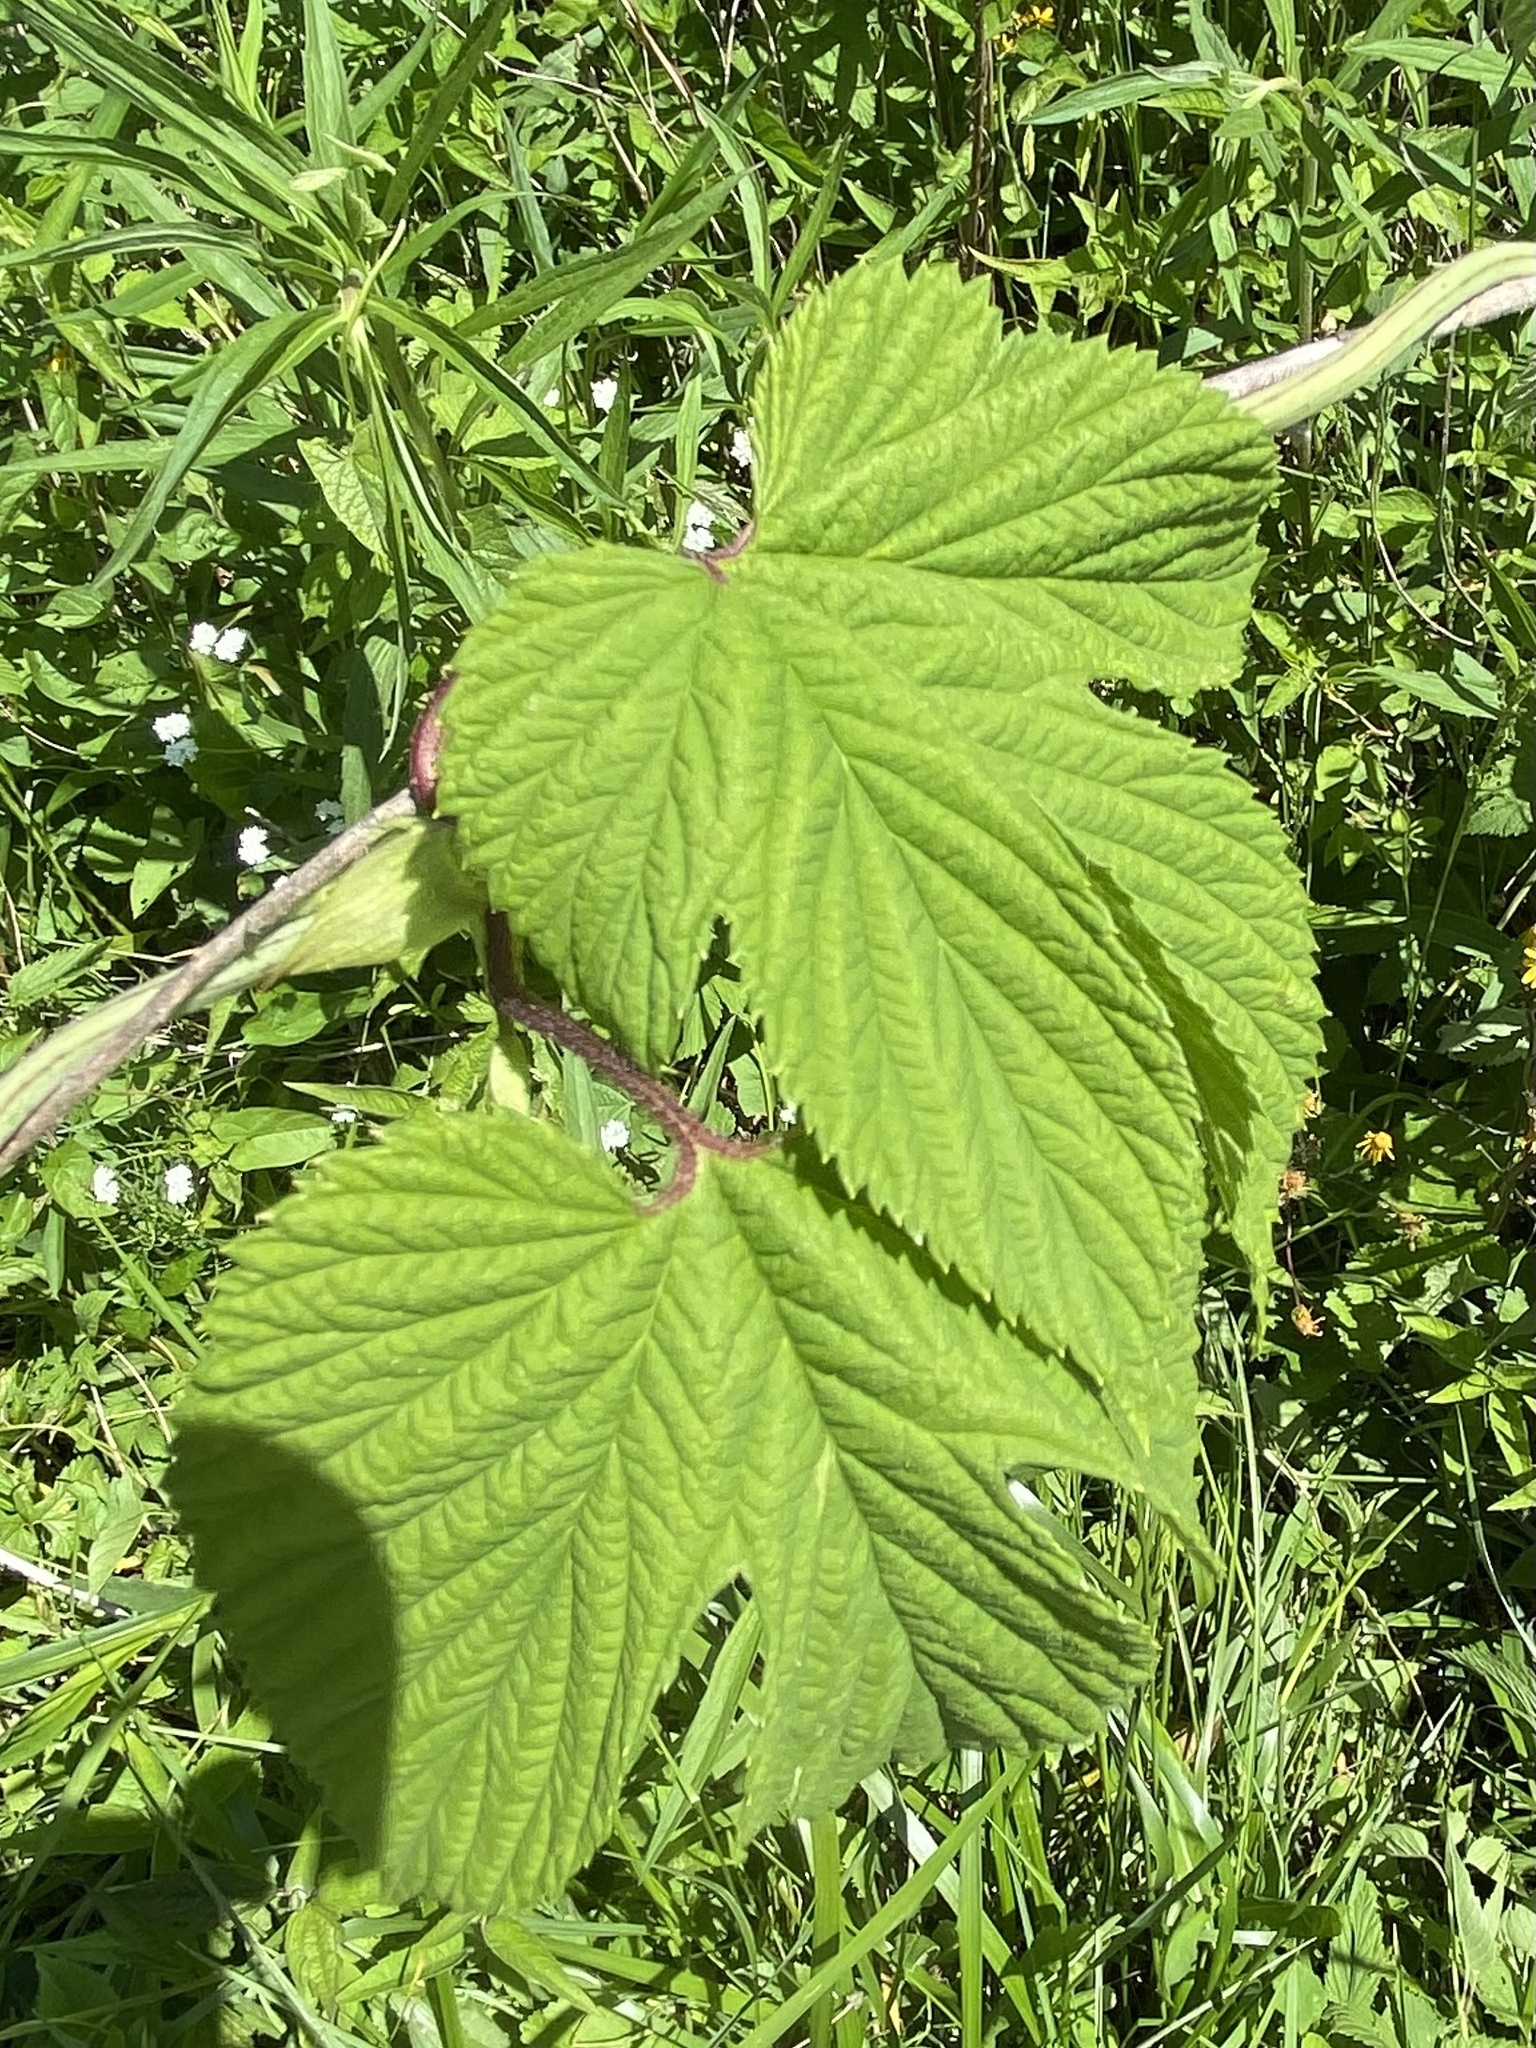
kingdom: Plantae
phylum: Tracheophyta
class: Magnoliopsida
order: Rosales
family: Cannabaceae
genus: Humulus
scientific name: Humulus lupulus
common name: Hop
